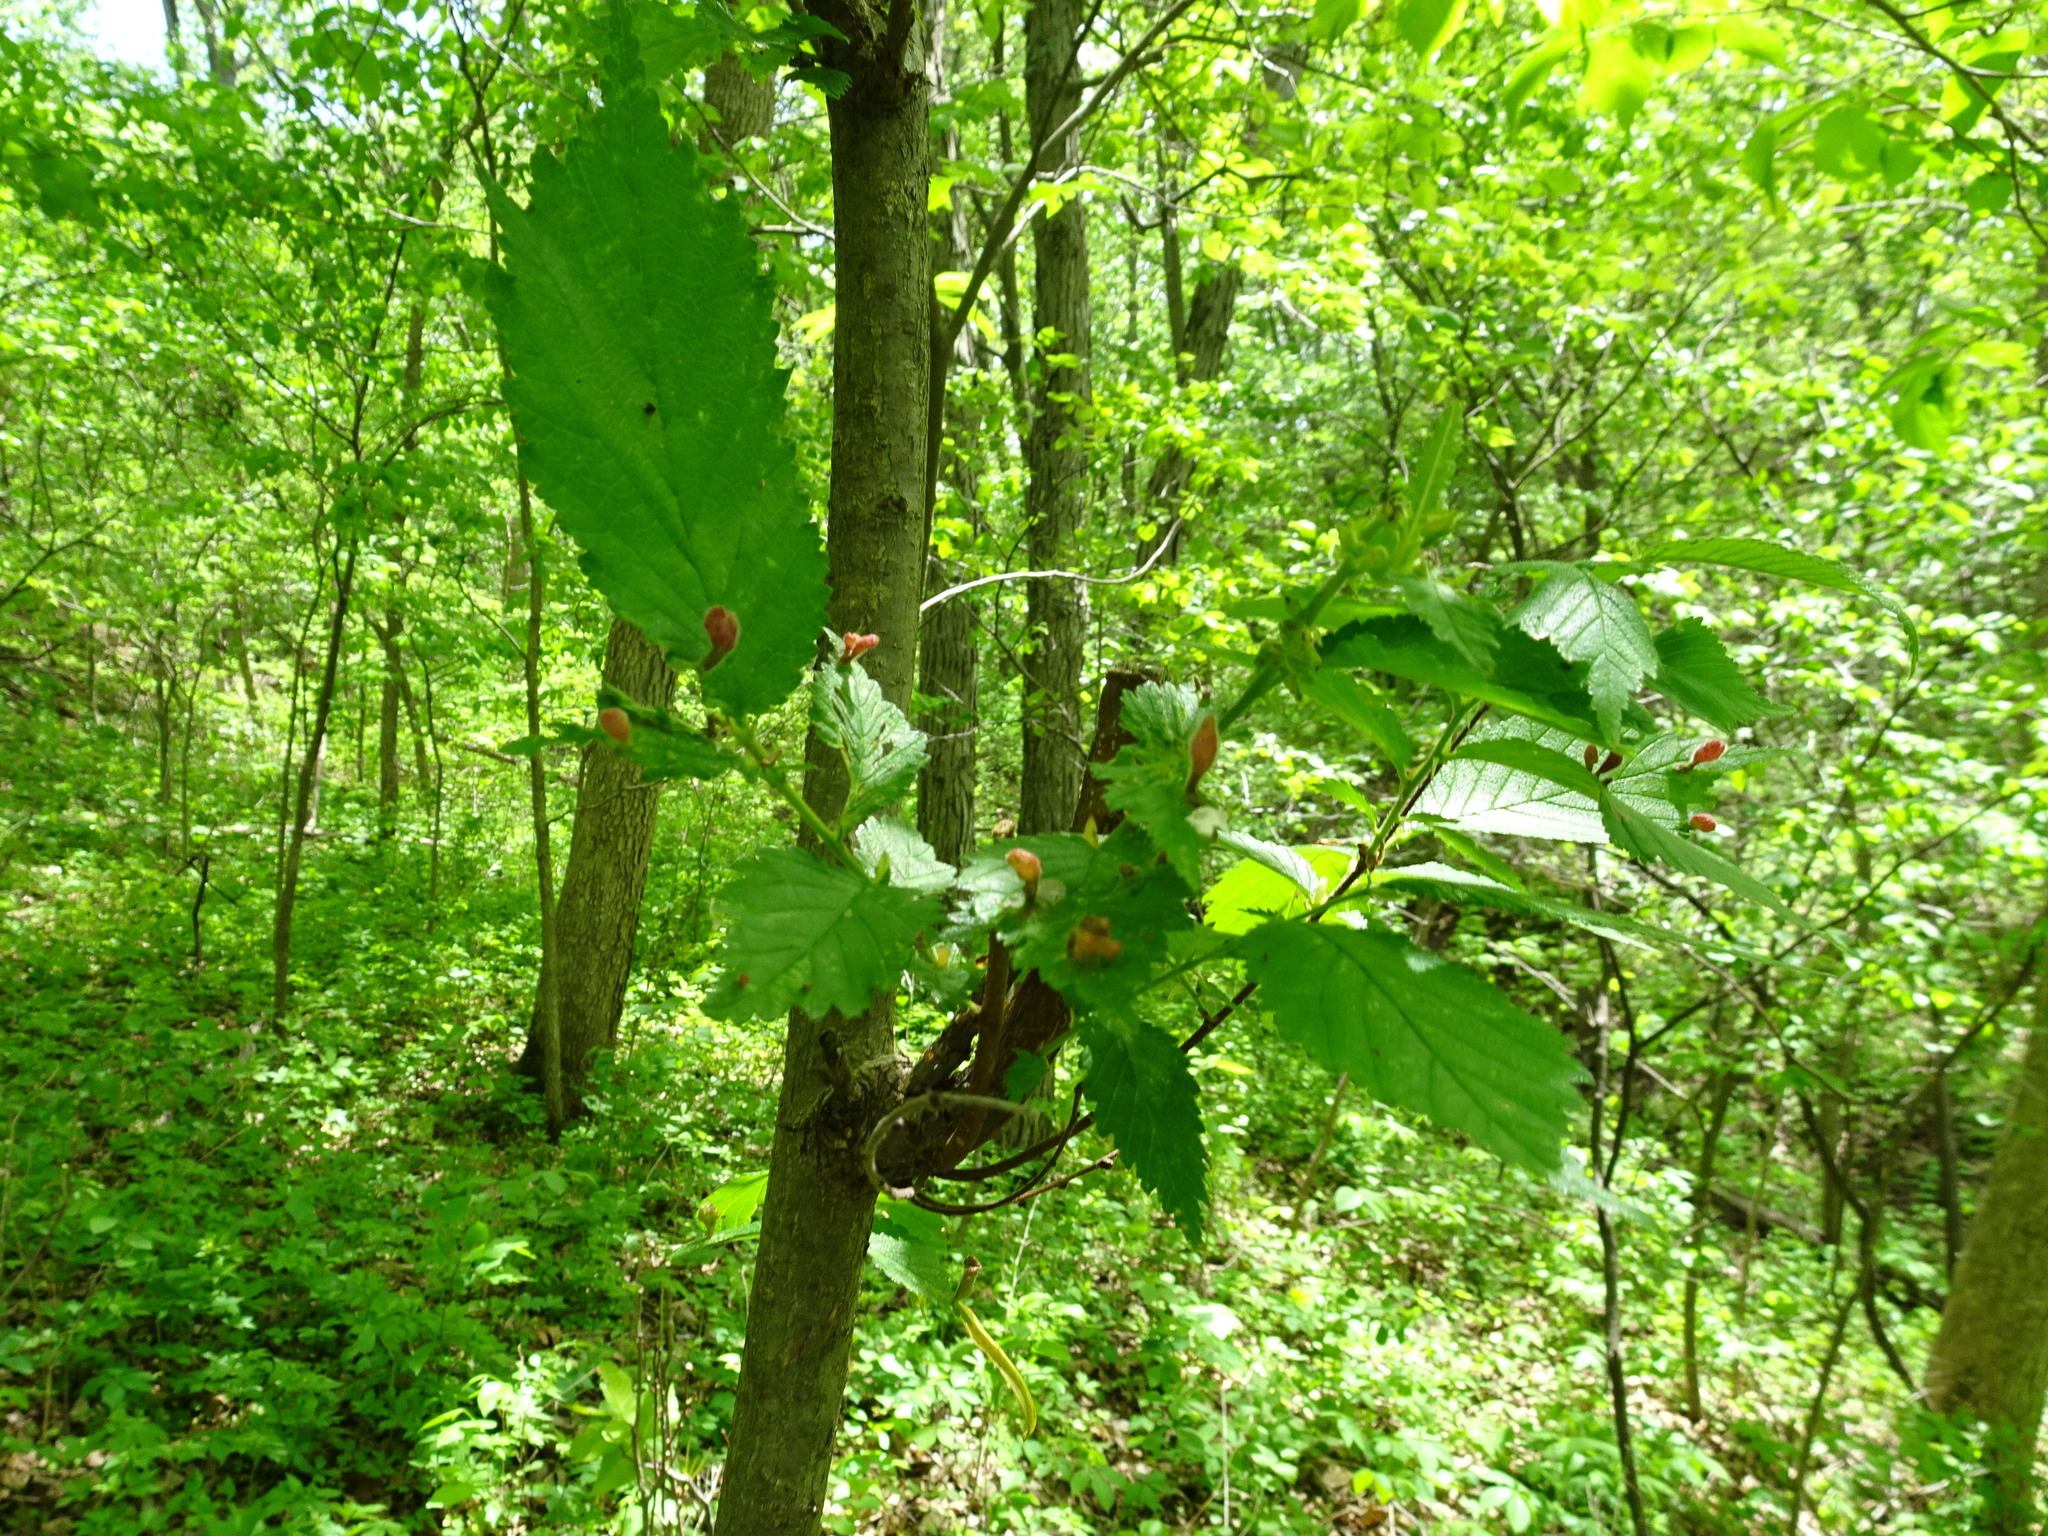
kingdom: Animalia
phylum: Arthropoda
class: Insecta
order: Hemiptera
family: Aphididae
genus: Tetraneura
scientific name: Tetraneura nigriabdominalis
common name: Aphid
